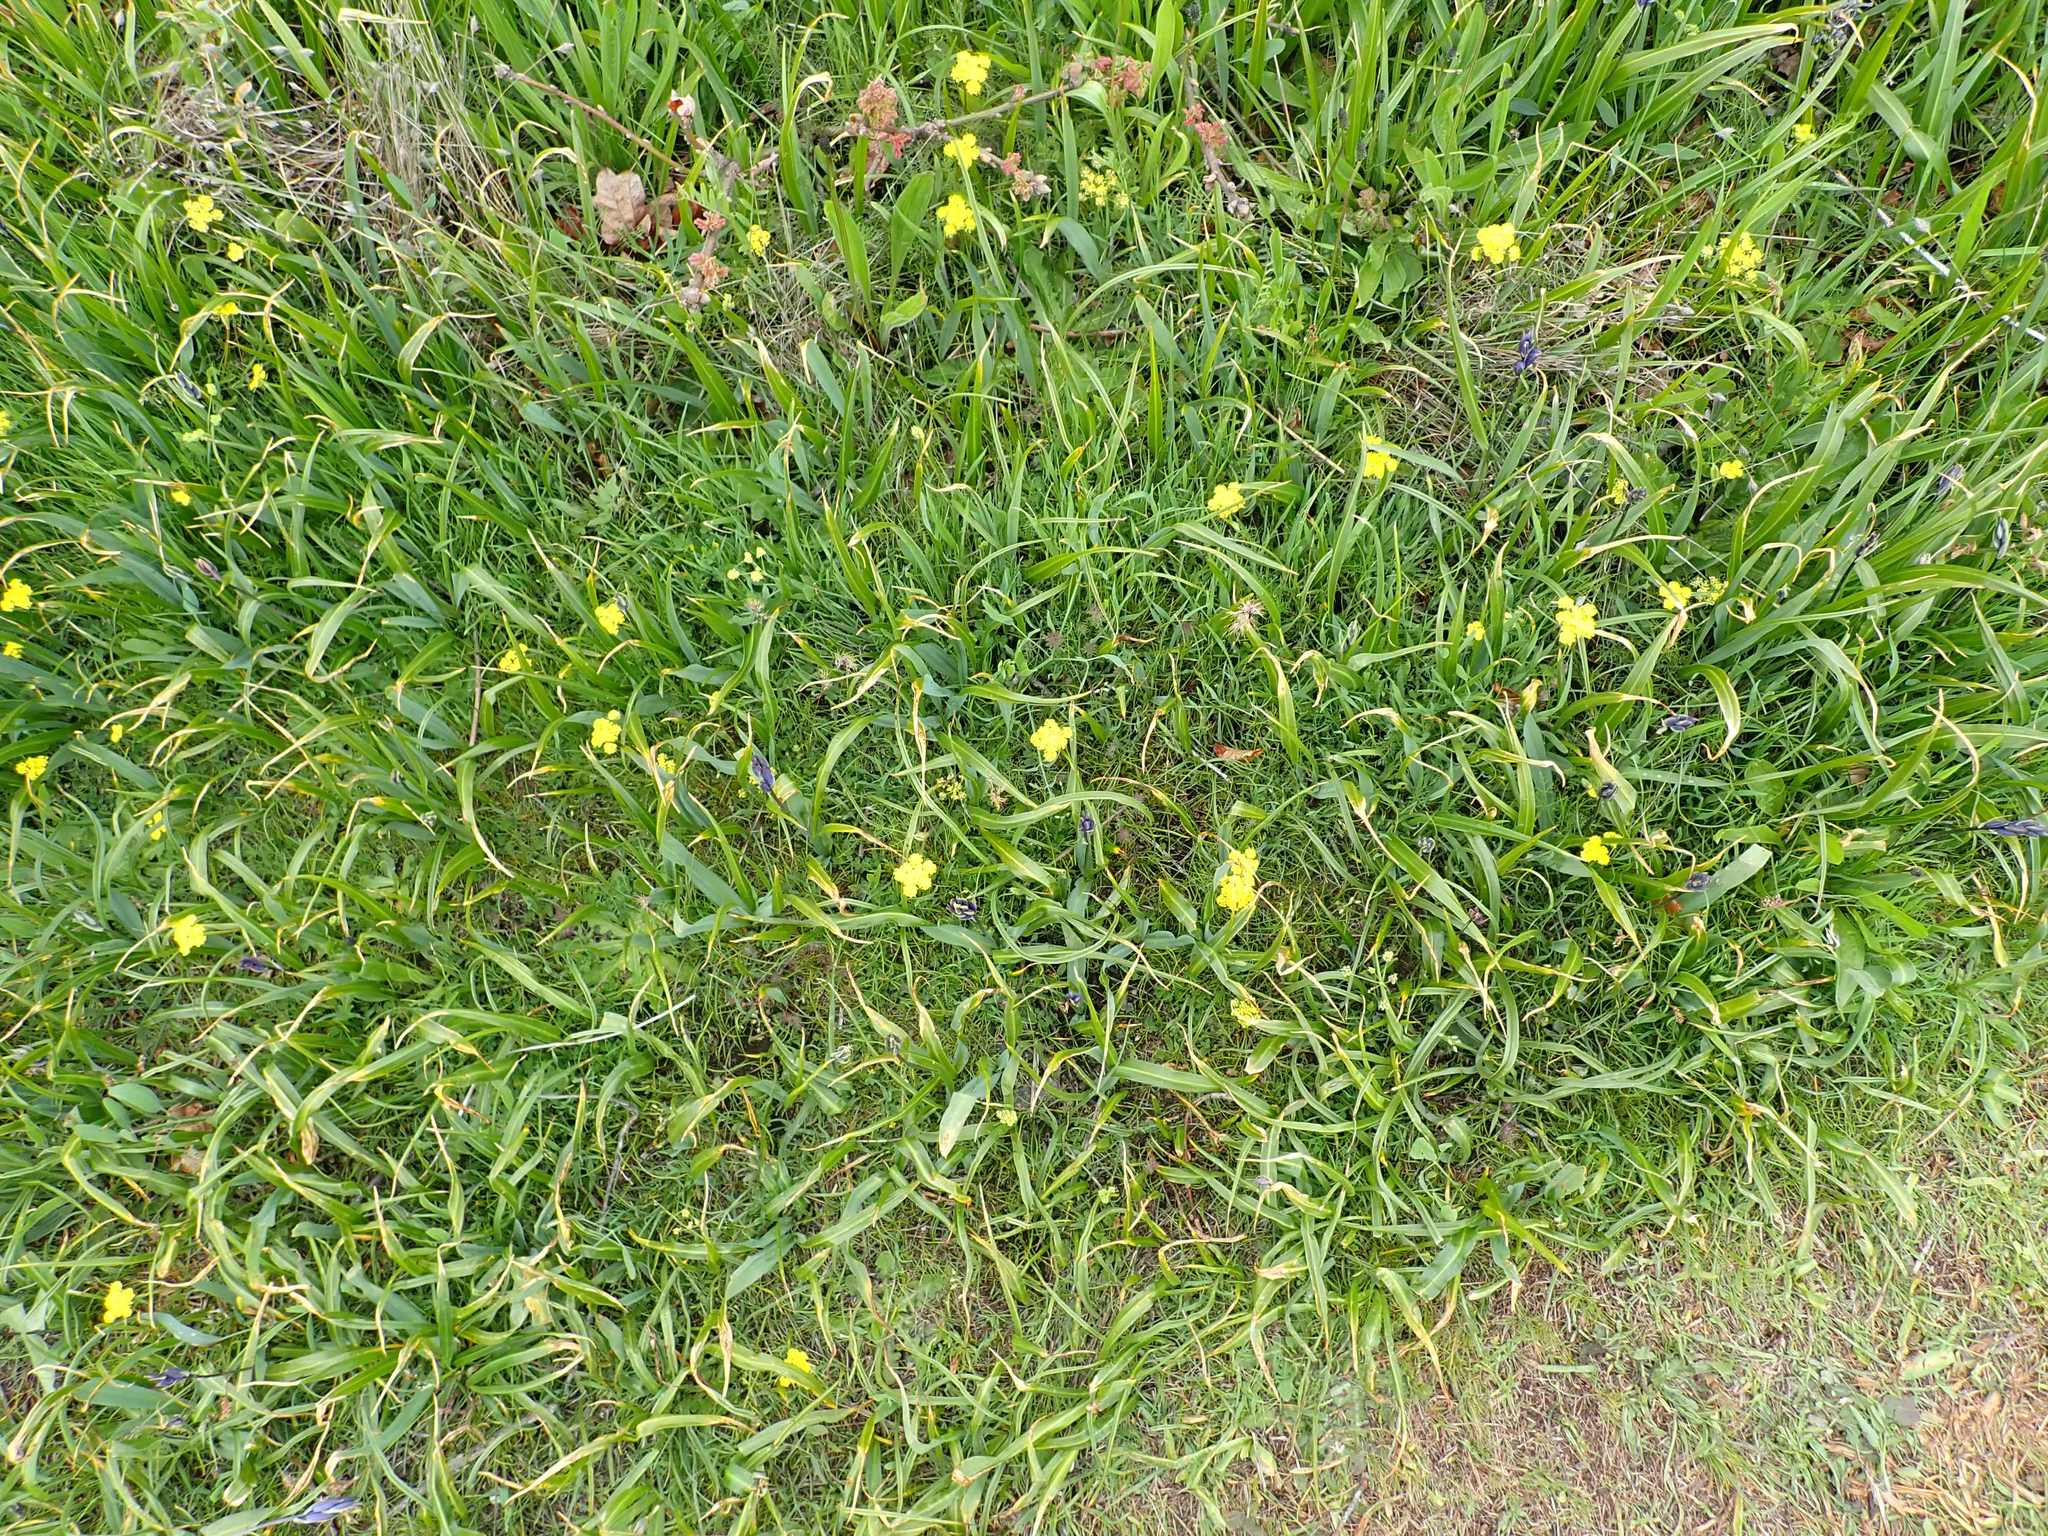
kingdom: Plantae
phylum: Tracheophyta
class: Magnoliopsida
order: Apiales
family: Apiaceae
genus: Lomatium
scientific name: Lomatium utriculatum
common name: Fine-leaf desert-parsley
